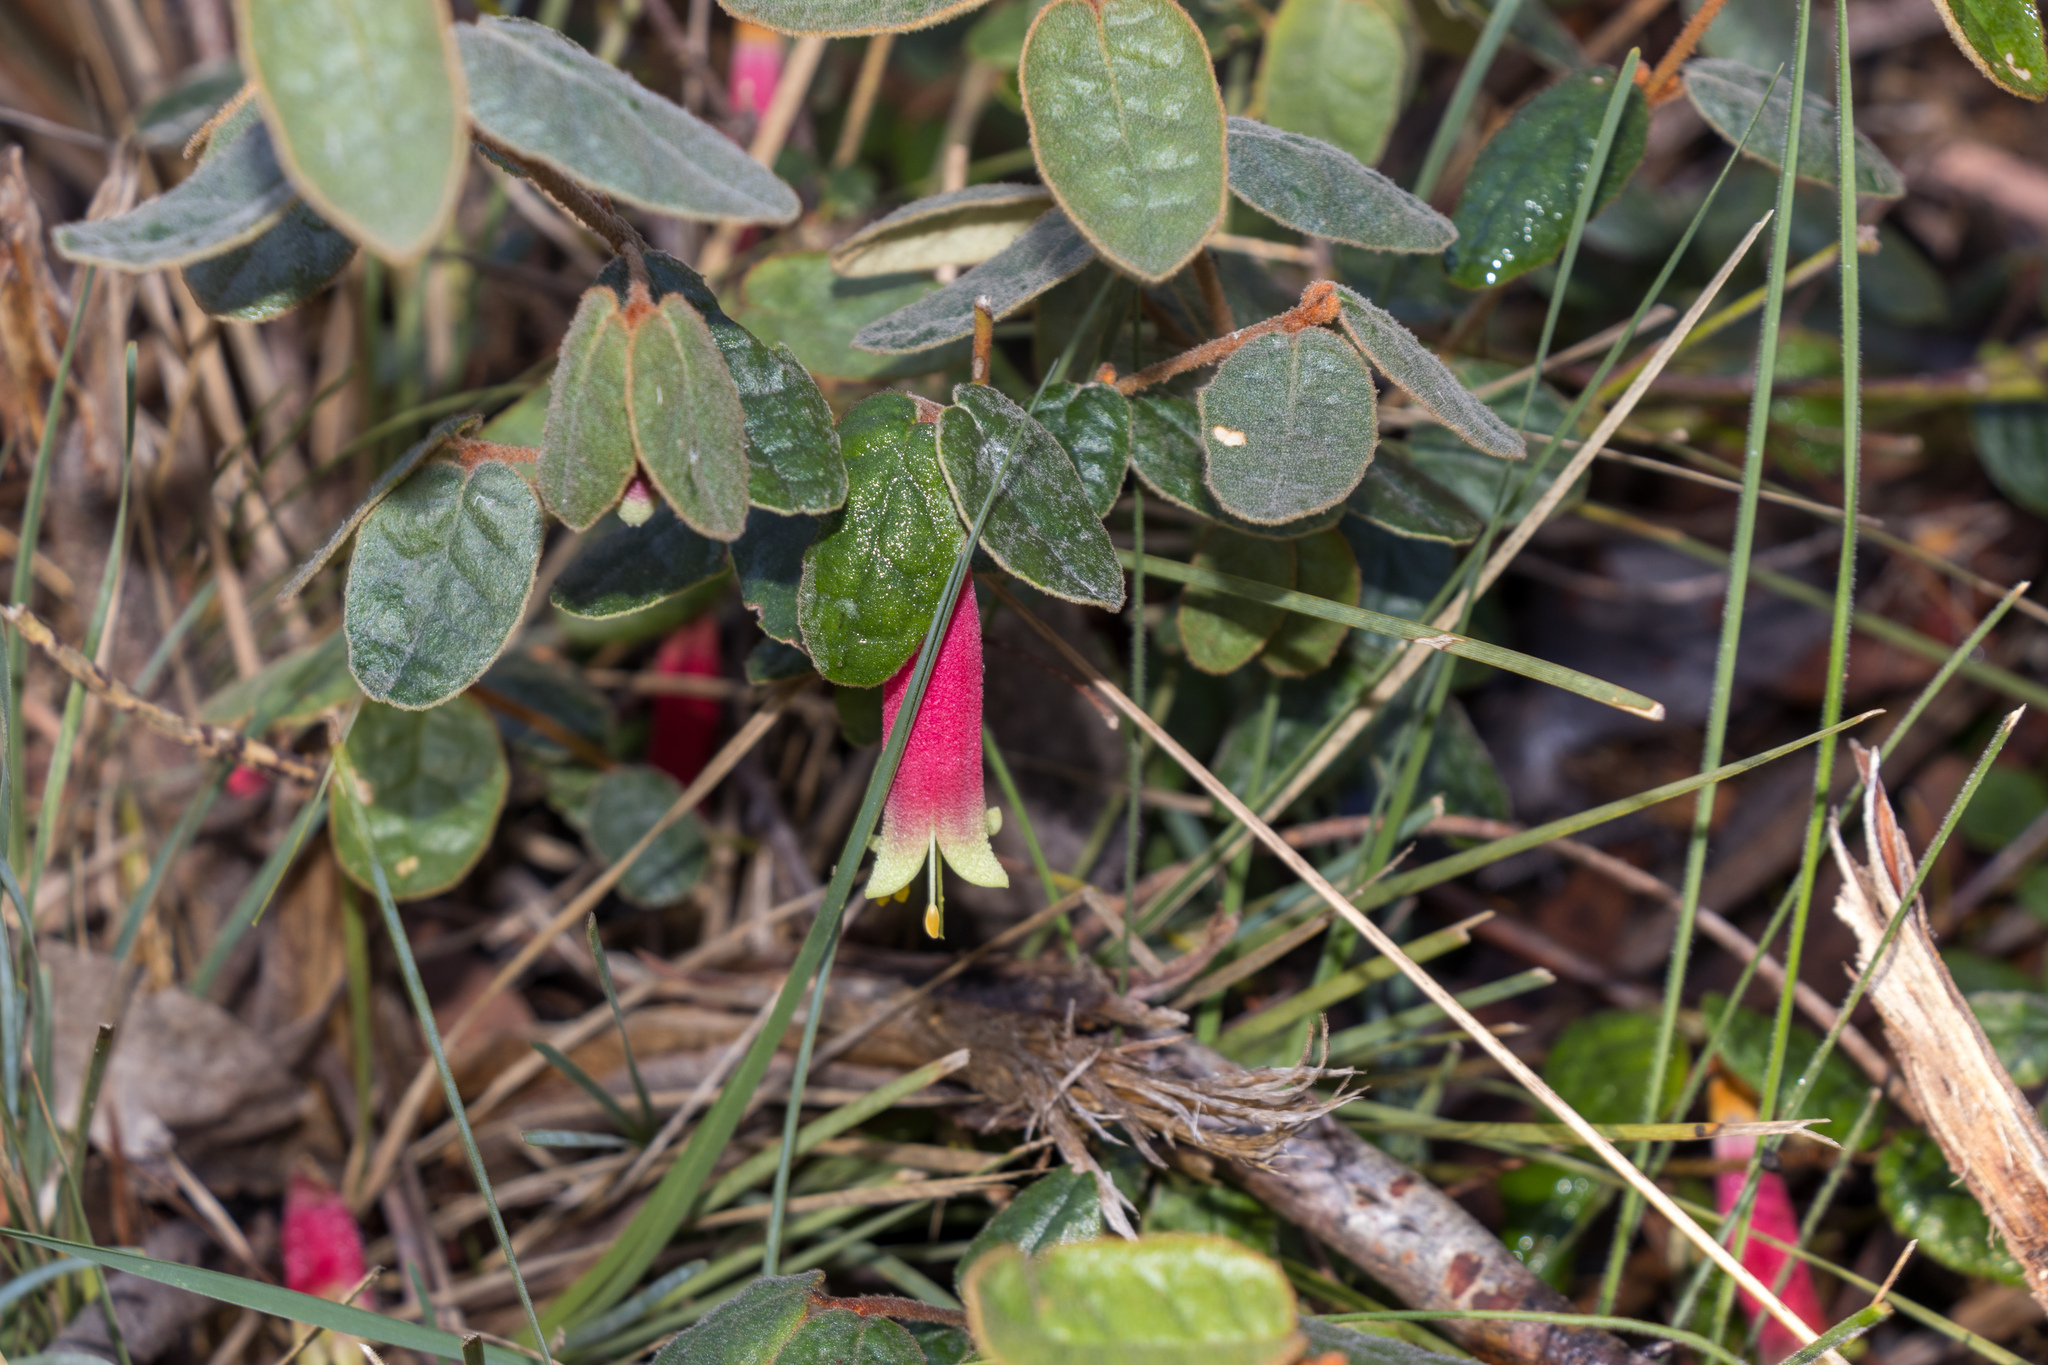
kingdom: Plantae
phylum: Tracheophyta
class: Magnoliopsida
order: Sapindales
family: Rutaceae
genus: Correa
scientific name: Correa reflexa
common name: Common correa
